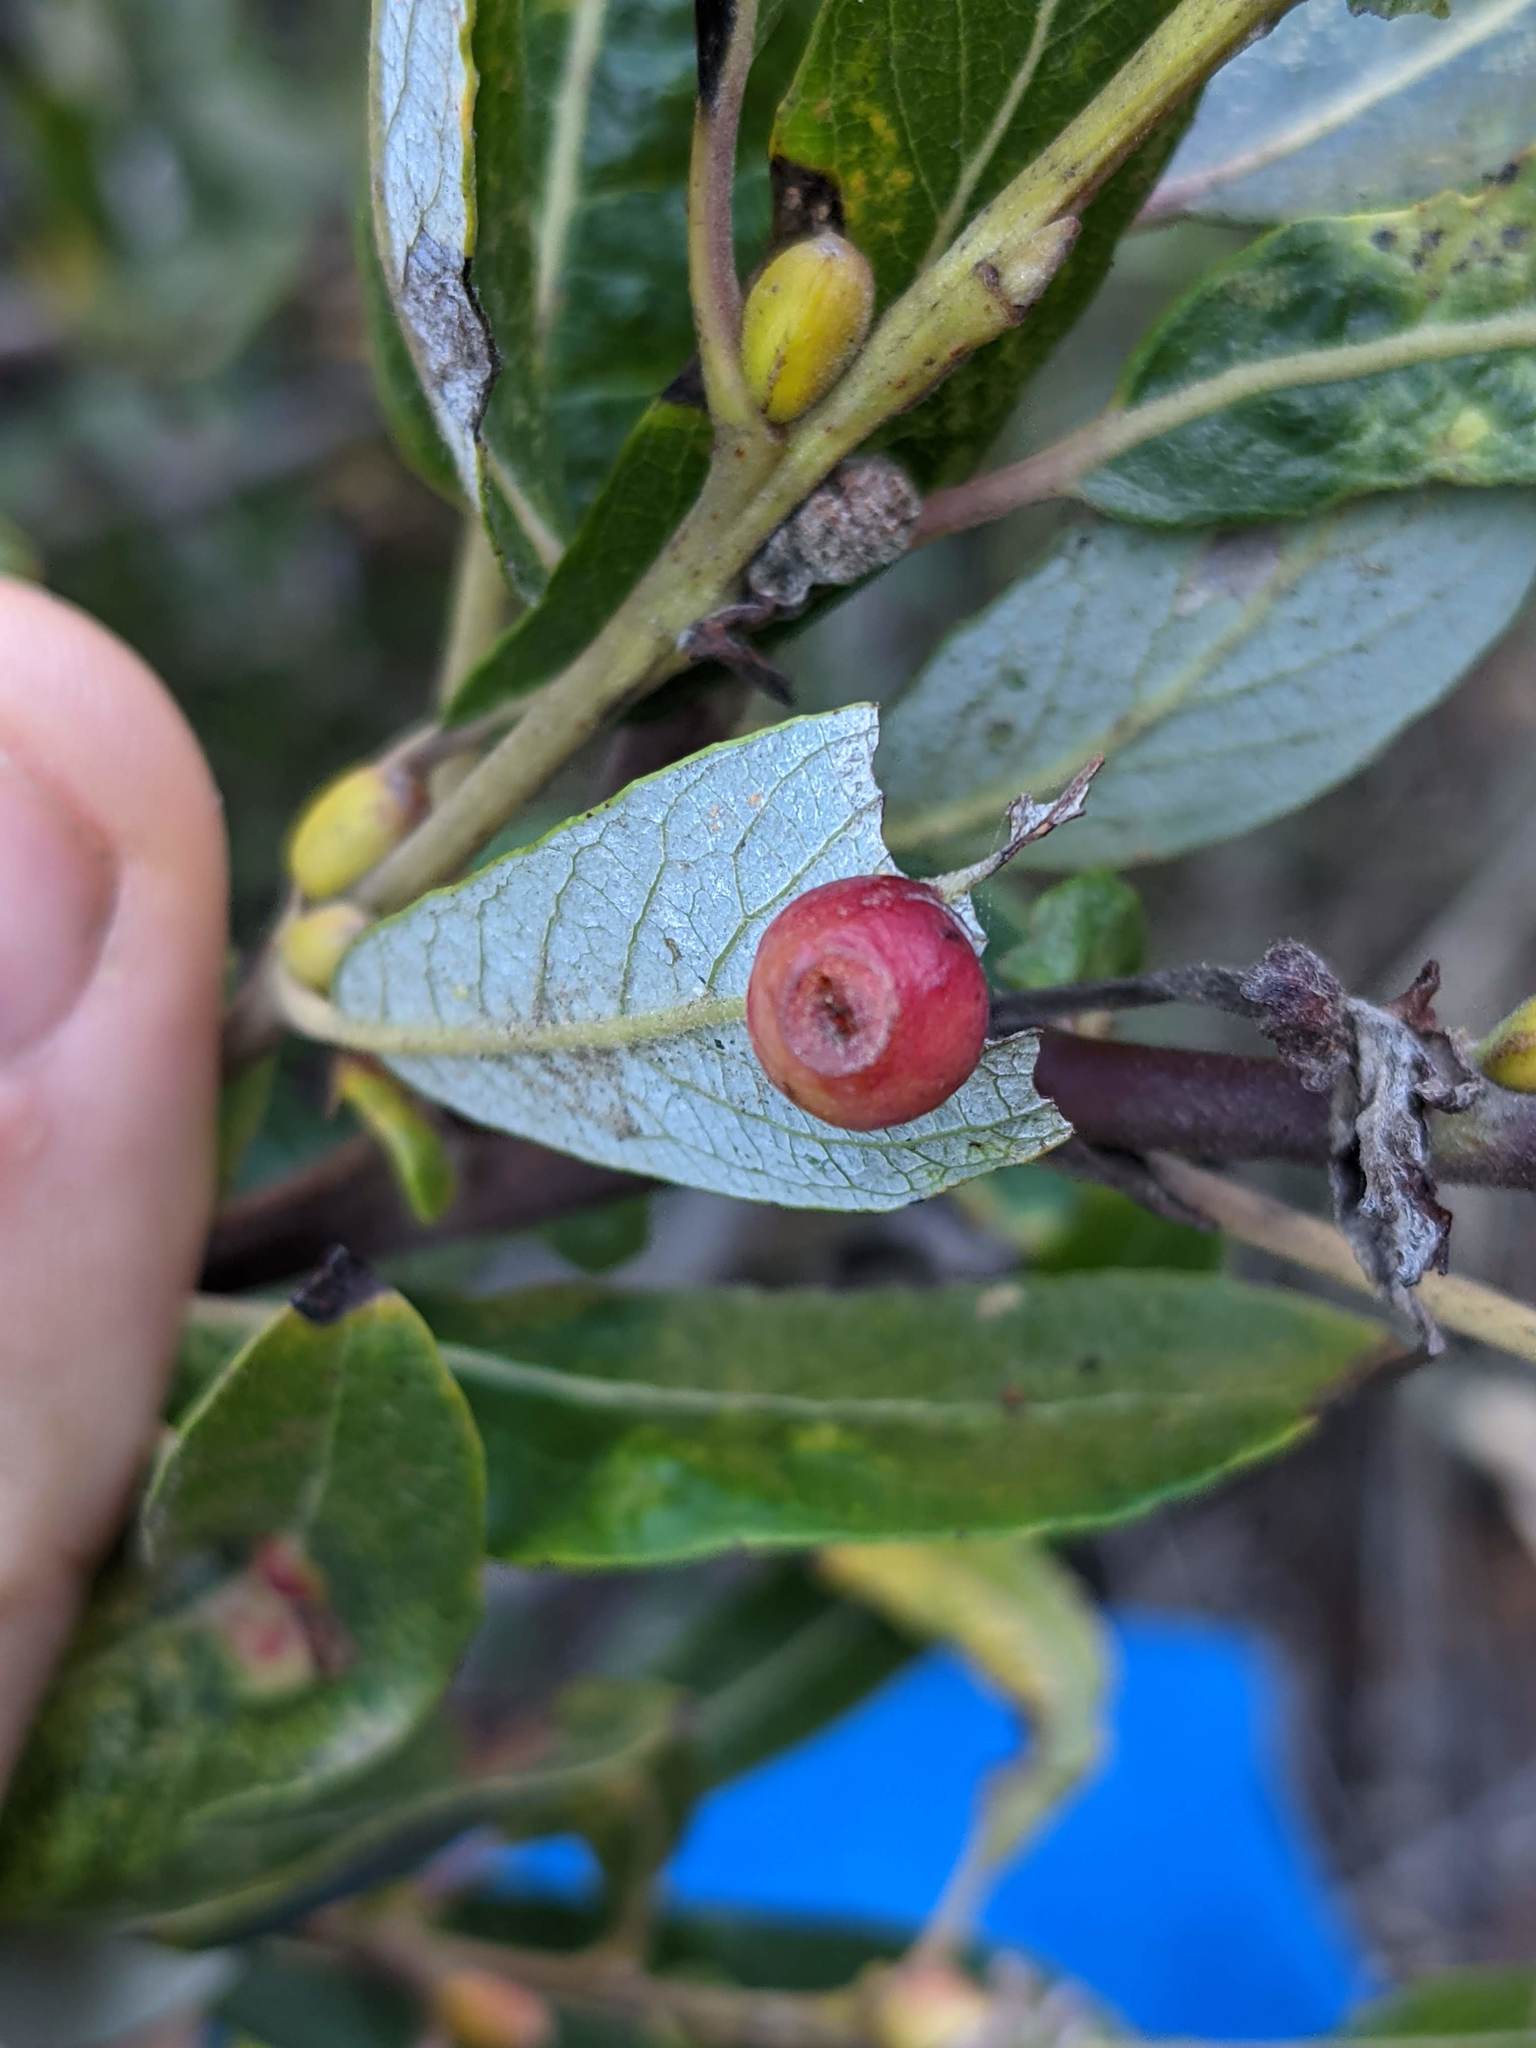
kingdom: Animalia
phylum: Arthropoda
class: Insecta
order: Hymenoptera
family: Tenthredinidae
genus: Euura
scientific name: Euura
